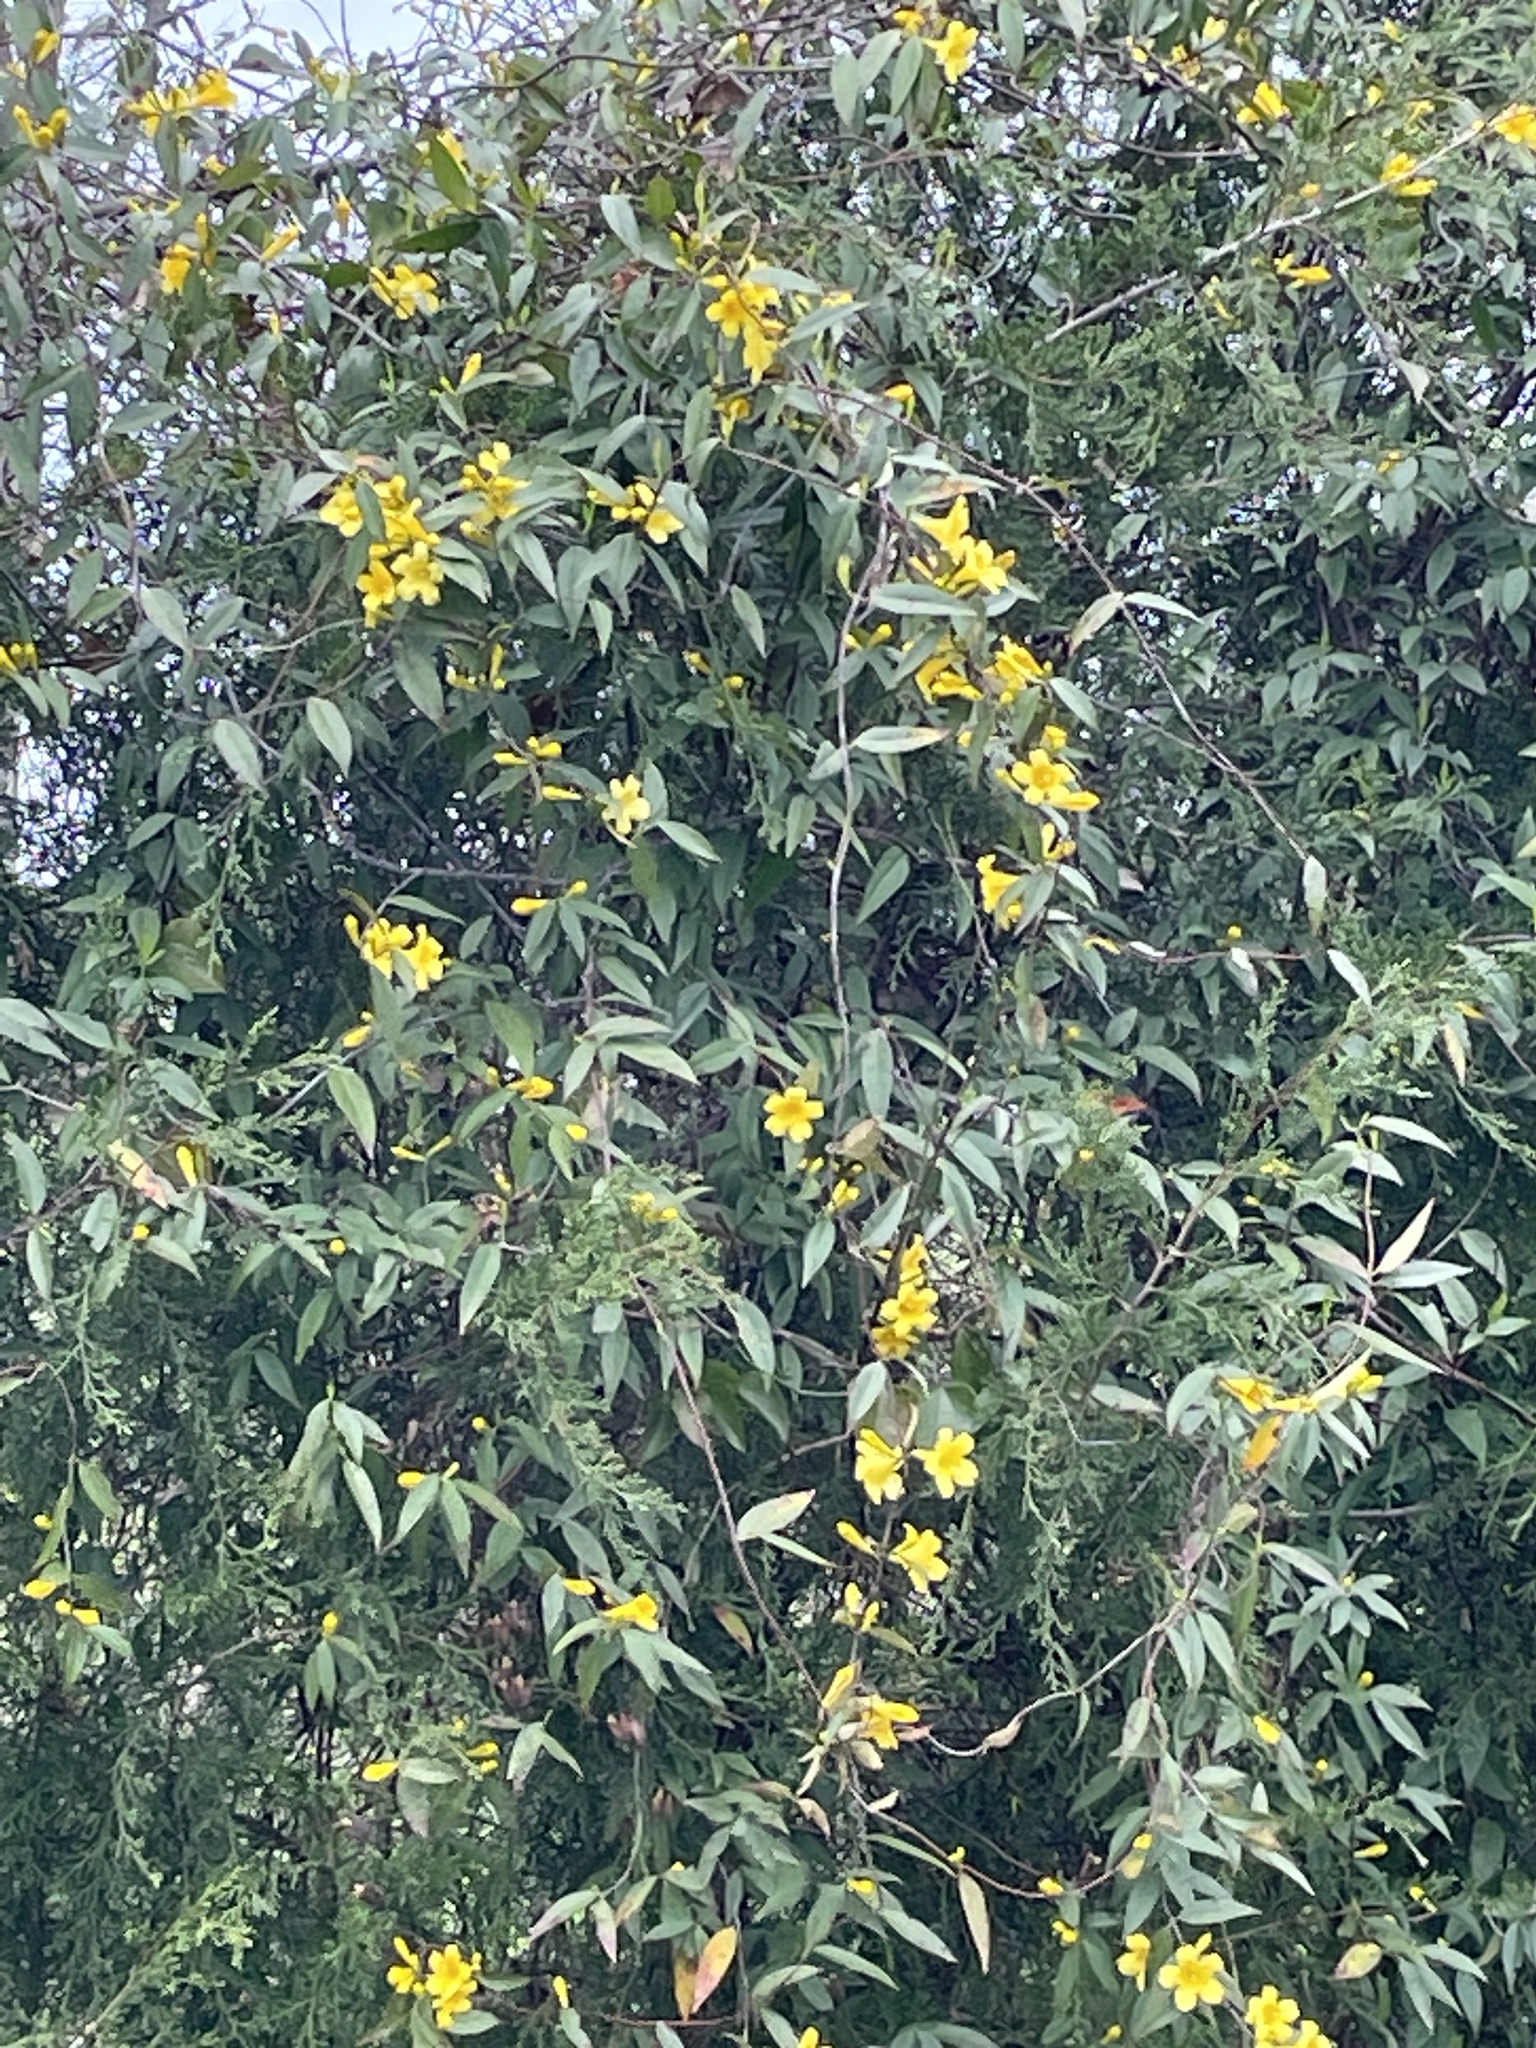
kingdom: Plantae
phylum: Tracheophyta
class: Magnoliopsida
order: Gentianales
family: Gelsemiaceae
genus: Gelsemium
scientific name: Gelsemium sempervirens
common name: Carolina-jasmine
